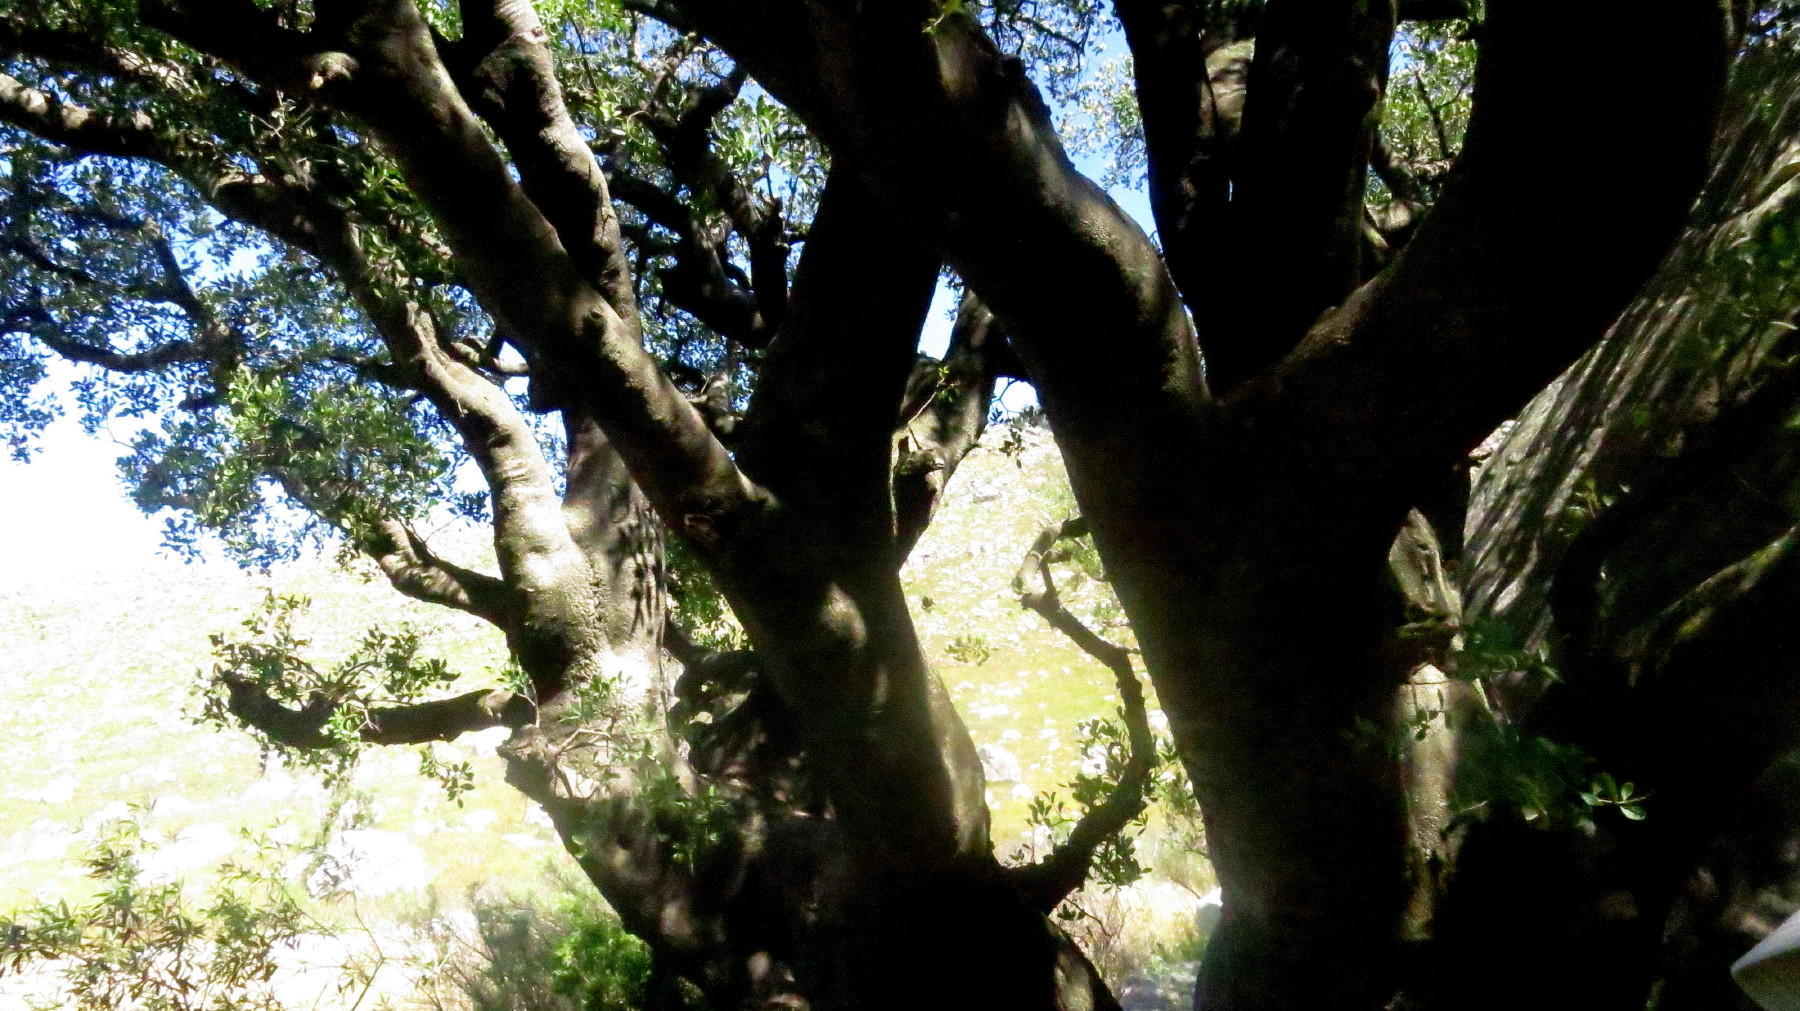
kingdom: Plantae
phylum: Tracheophyta
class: Magnoliopsida
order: Celastrales
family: Celastraceae
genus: Gymnosporia
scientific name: Gymnosporia laurina
